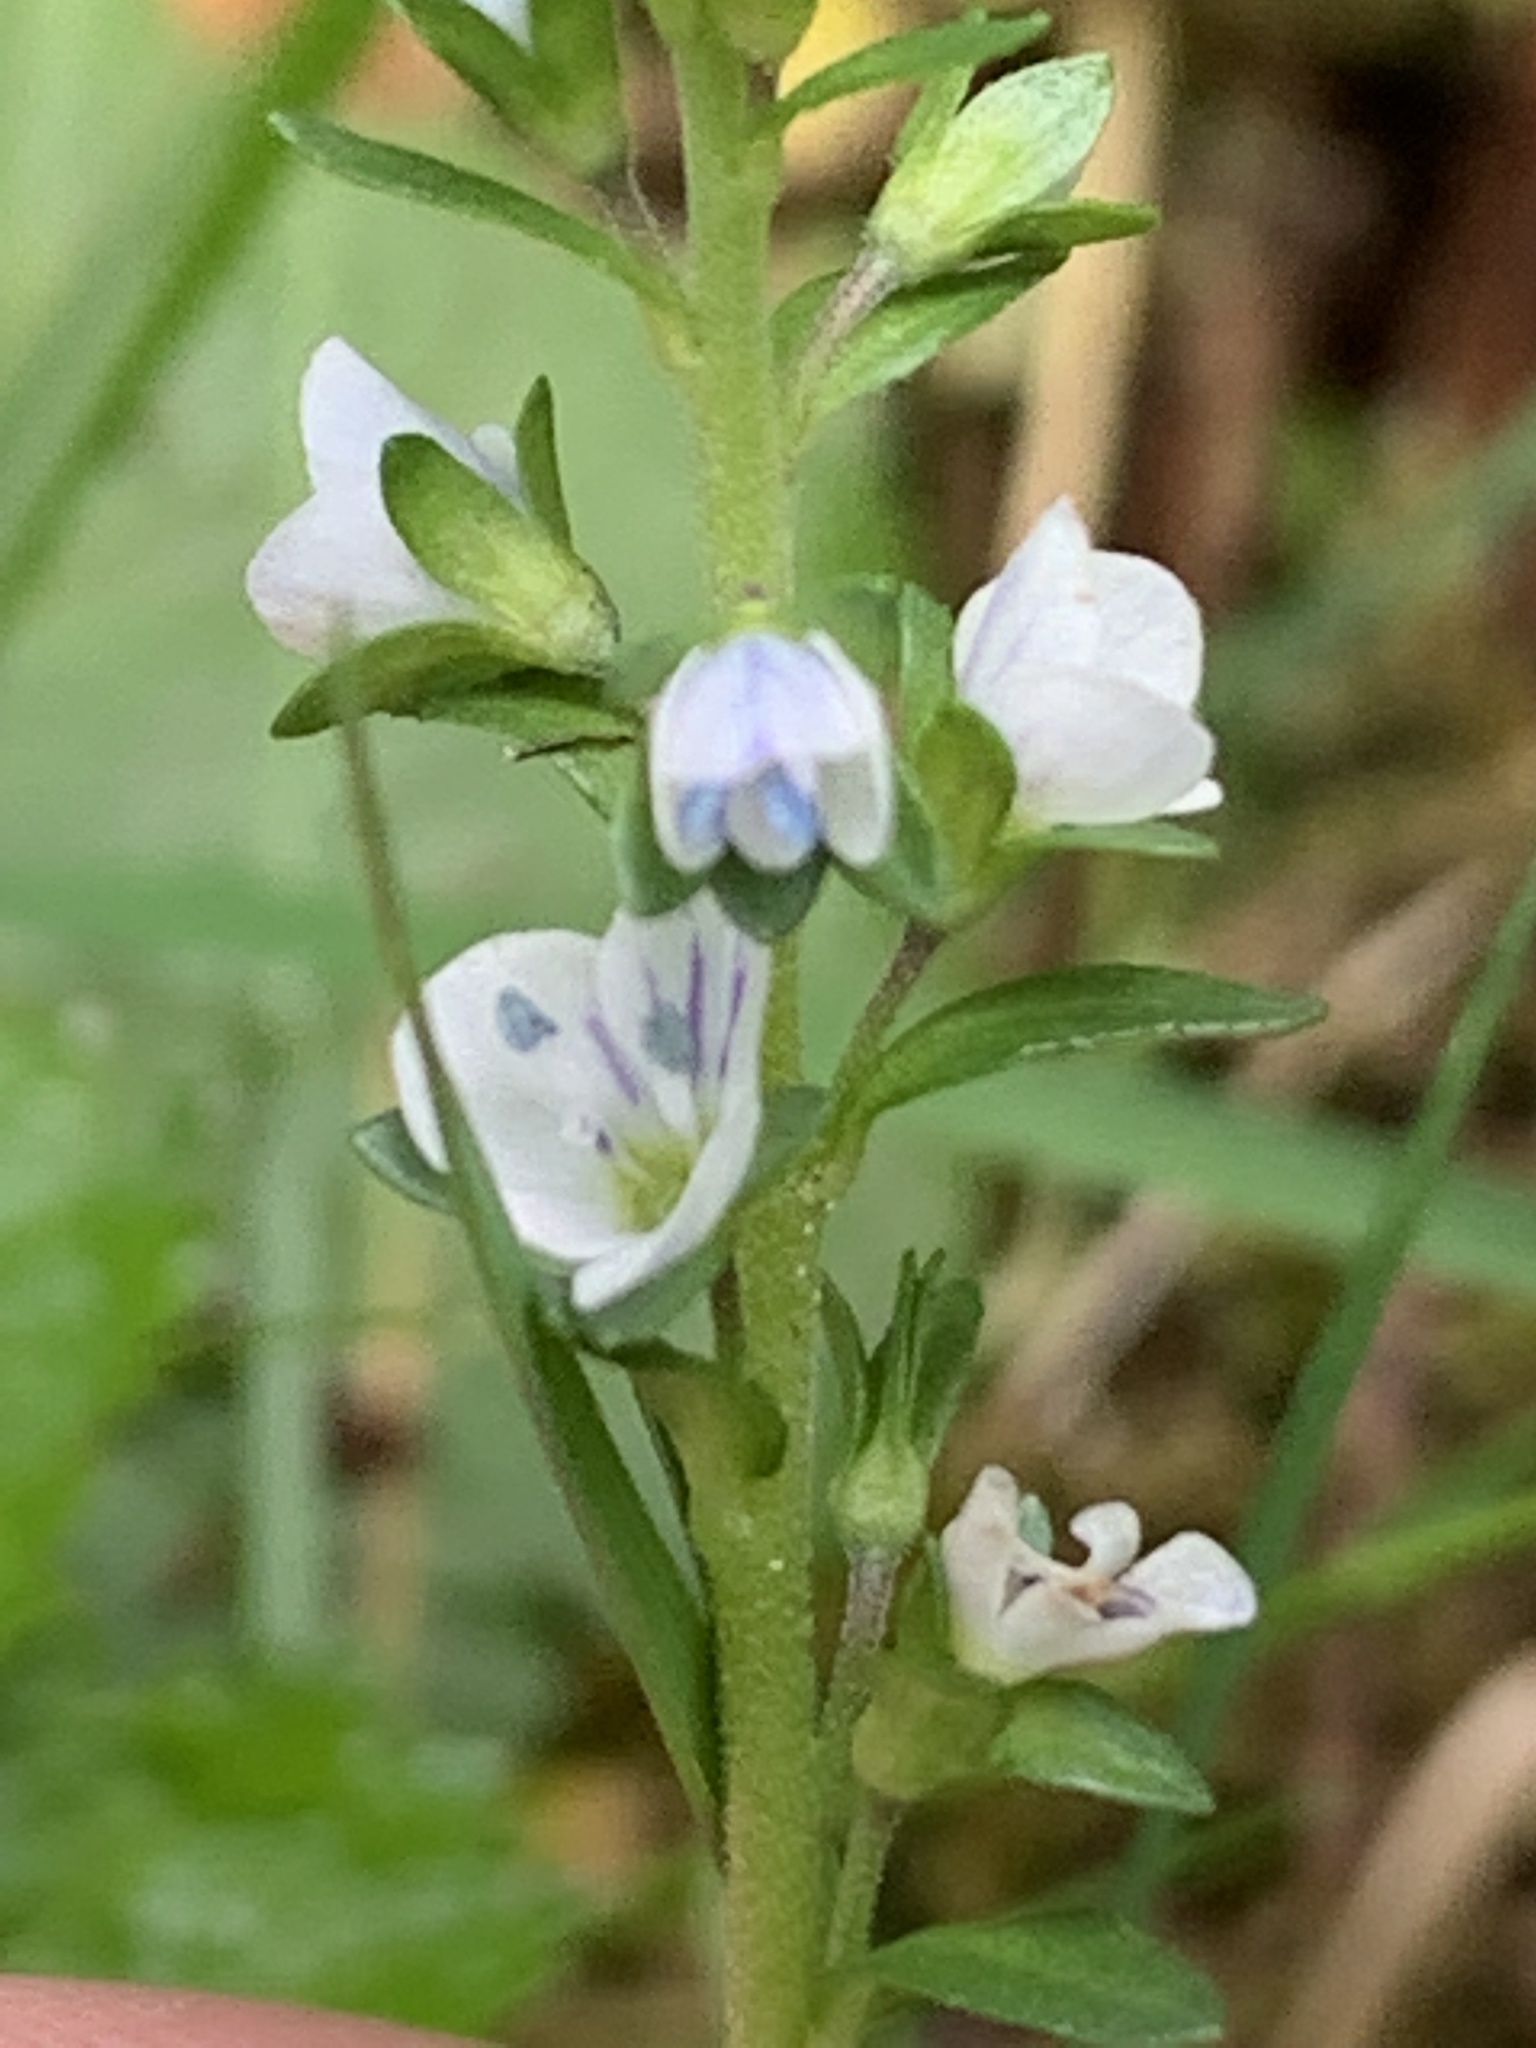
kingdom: Plantae
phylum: Tracheophyta
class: Magnoliopsida
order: Lamiales
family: Plantaginaceae
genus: Veronica
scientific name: Veronica serpyllifolia
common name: Thyme-leaved speedwell
